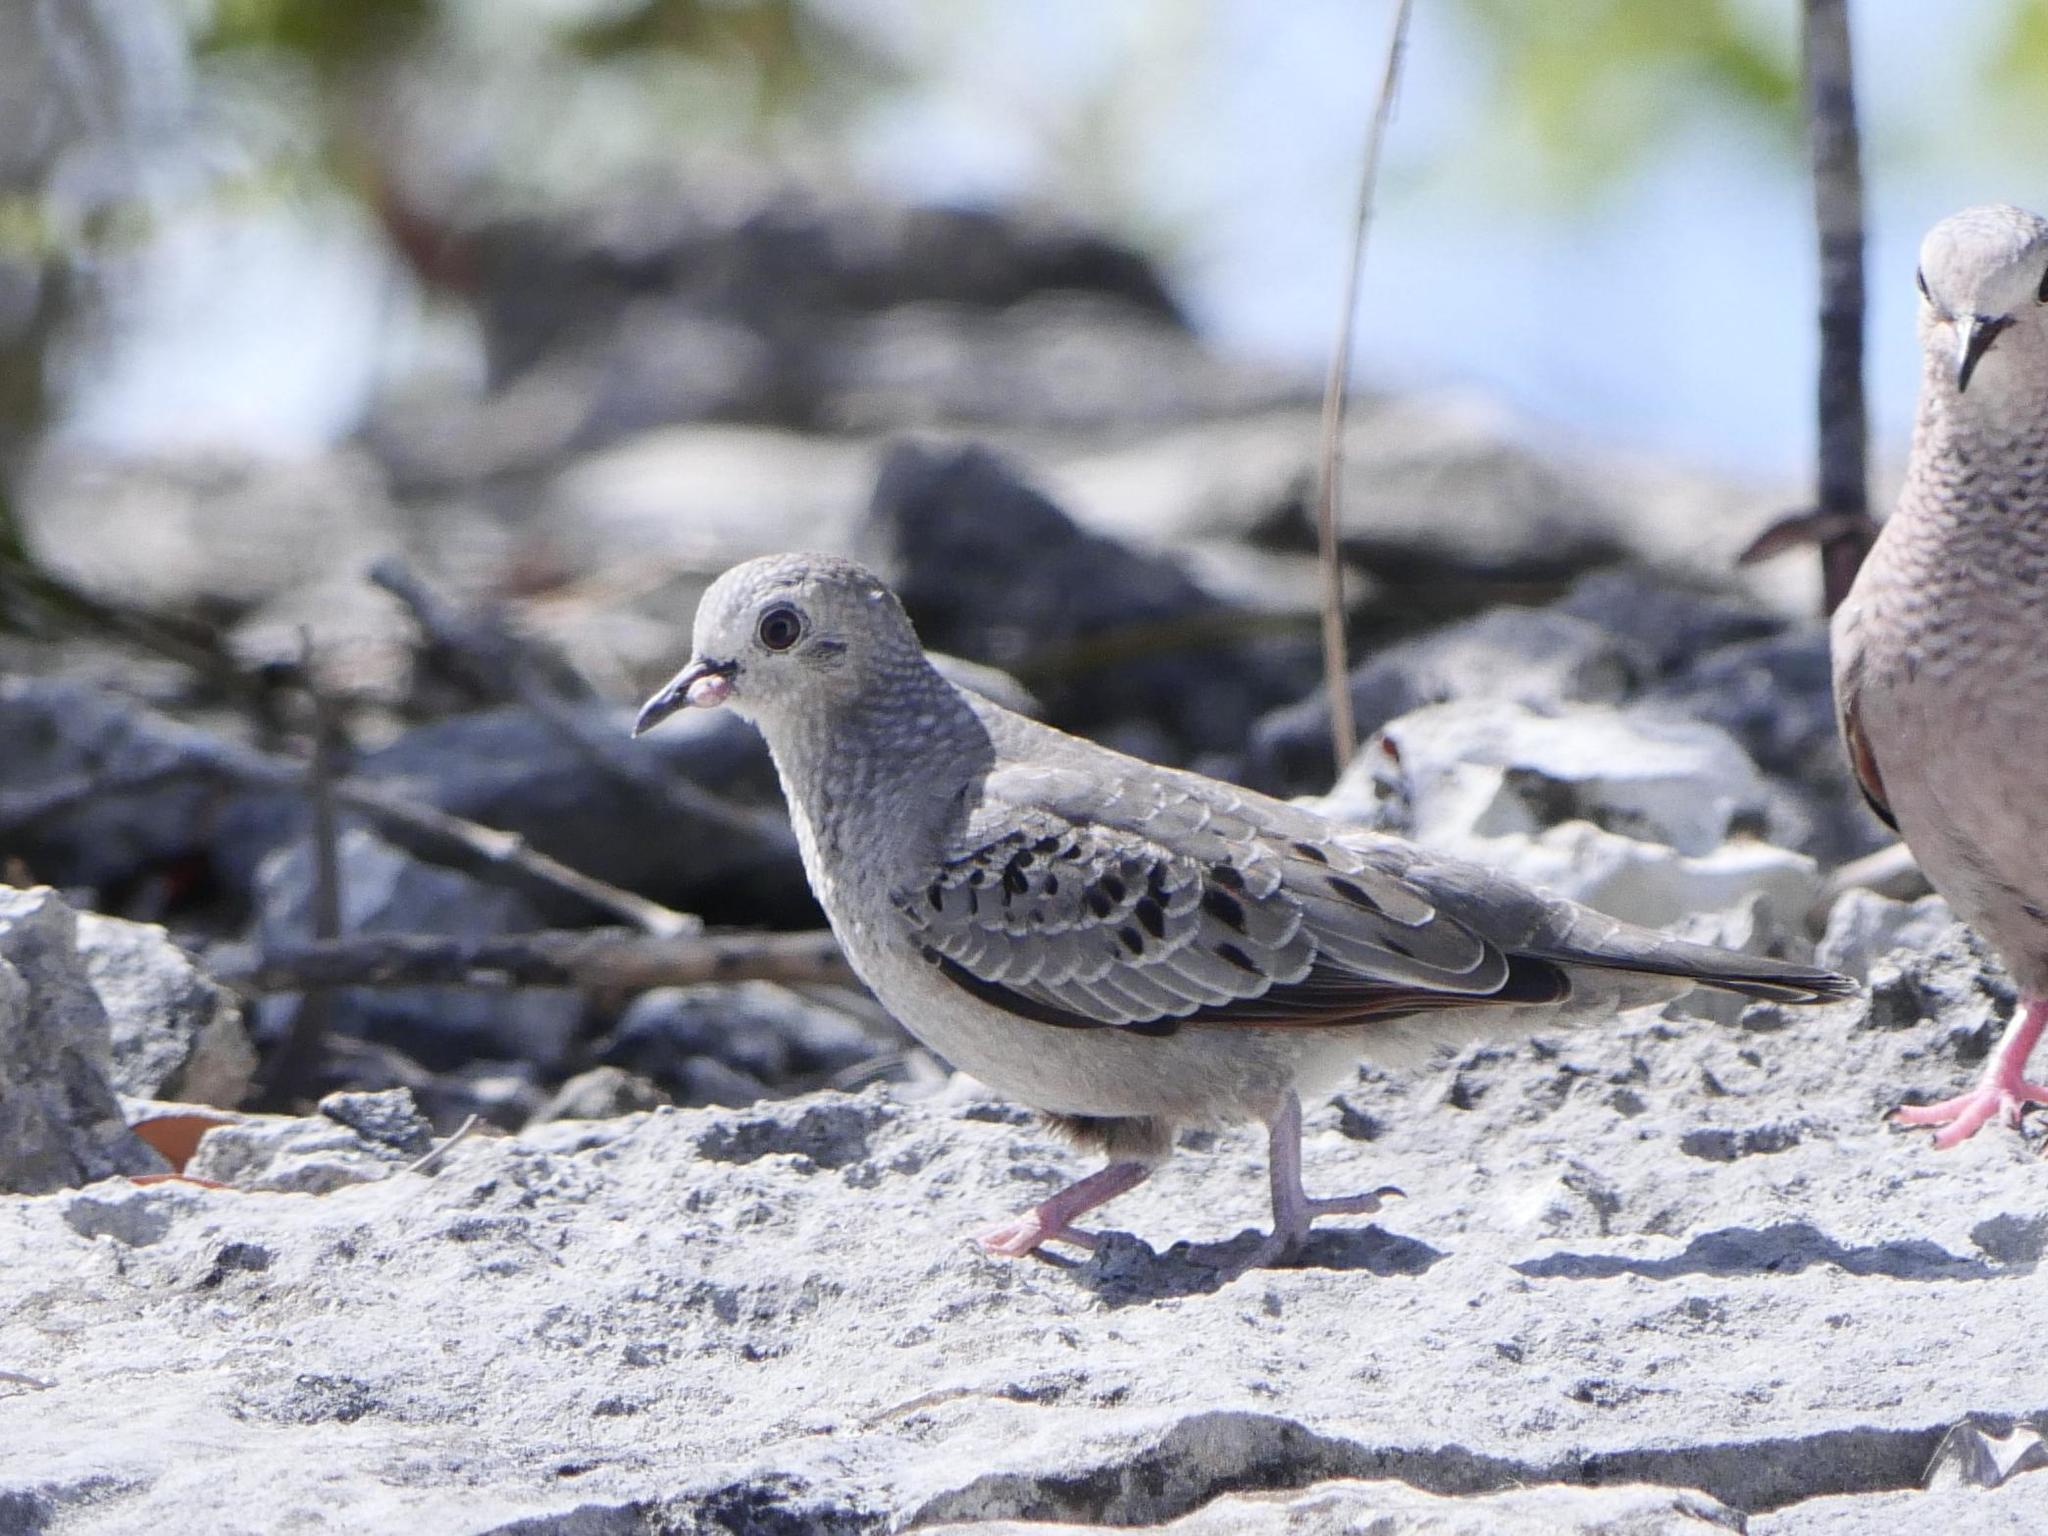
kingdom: Animalia
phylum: Chordata
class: Aves
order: Columbiformes
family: Columbidae
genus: Columbina
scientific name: Columbina passerina
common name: Common ground-dove
